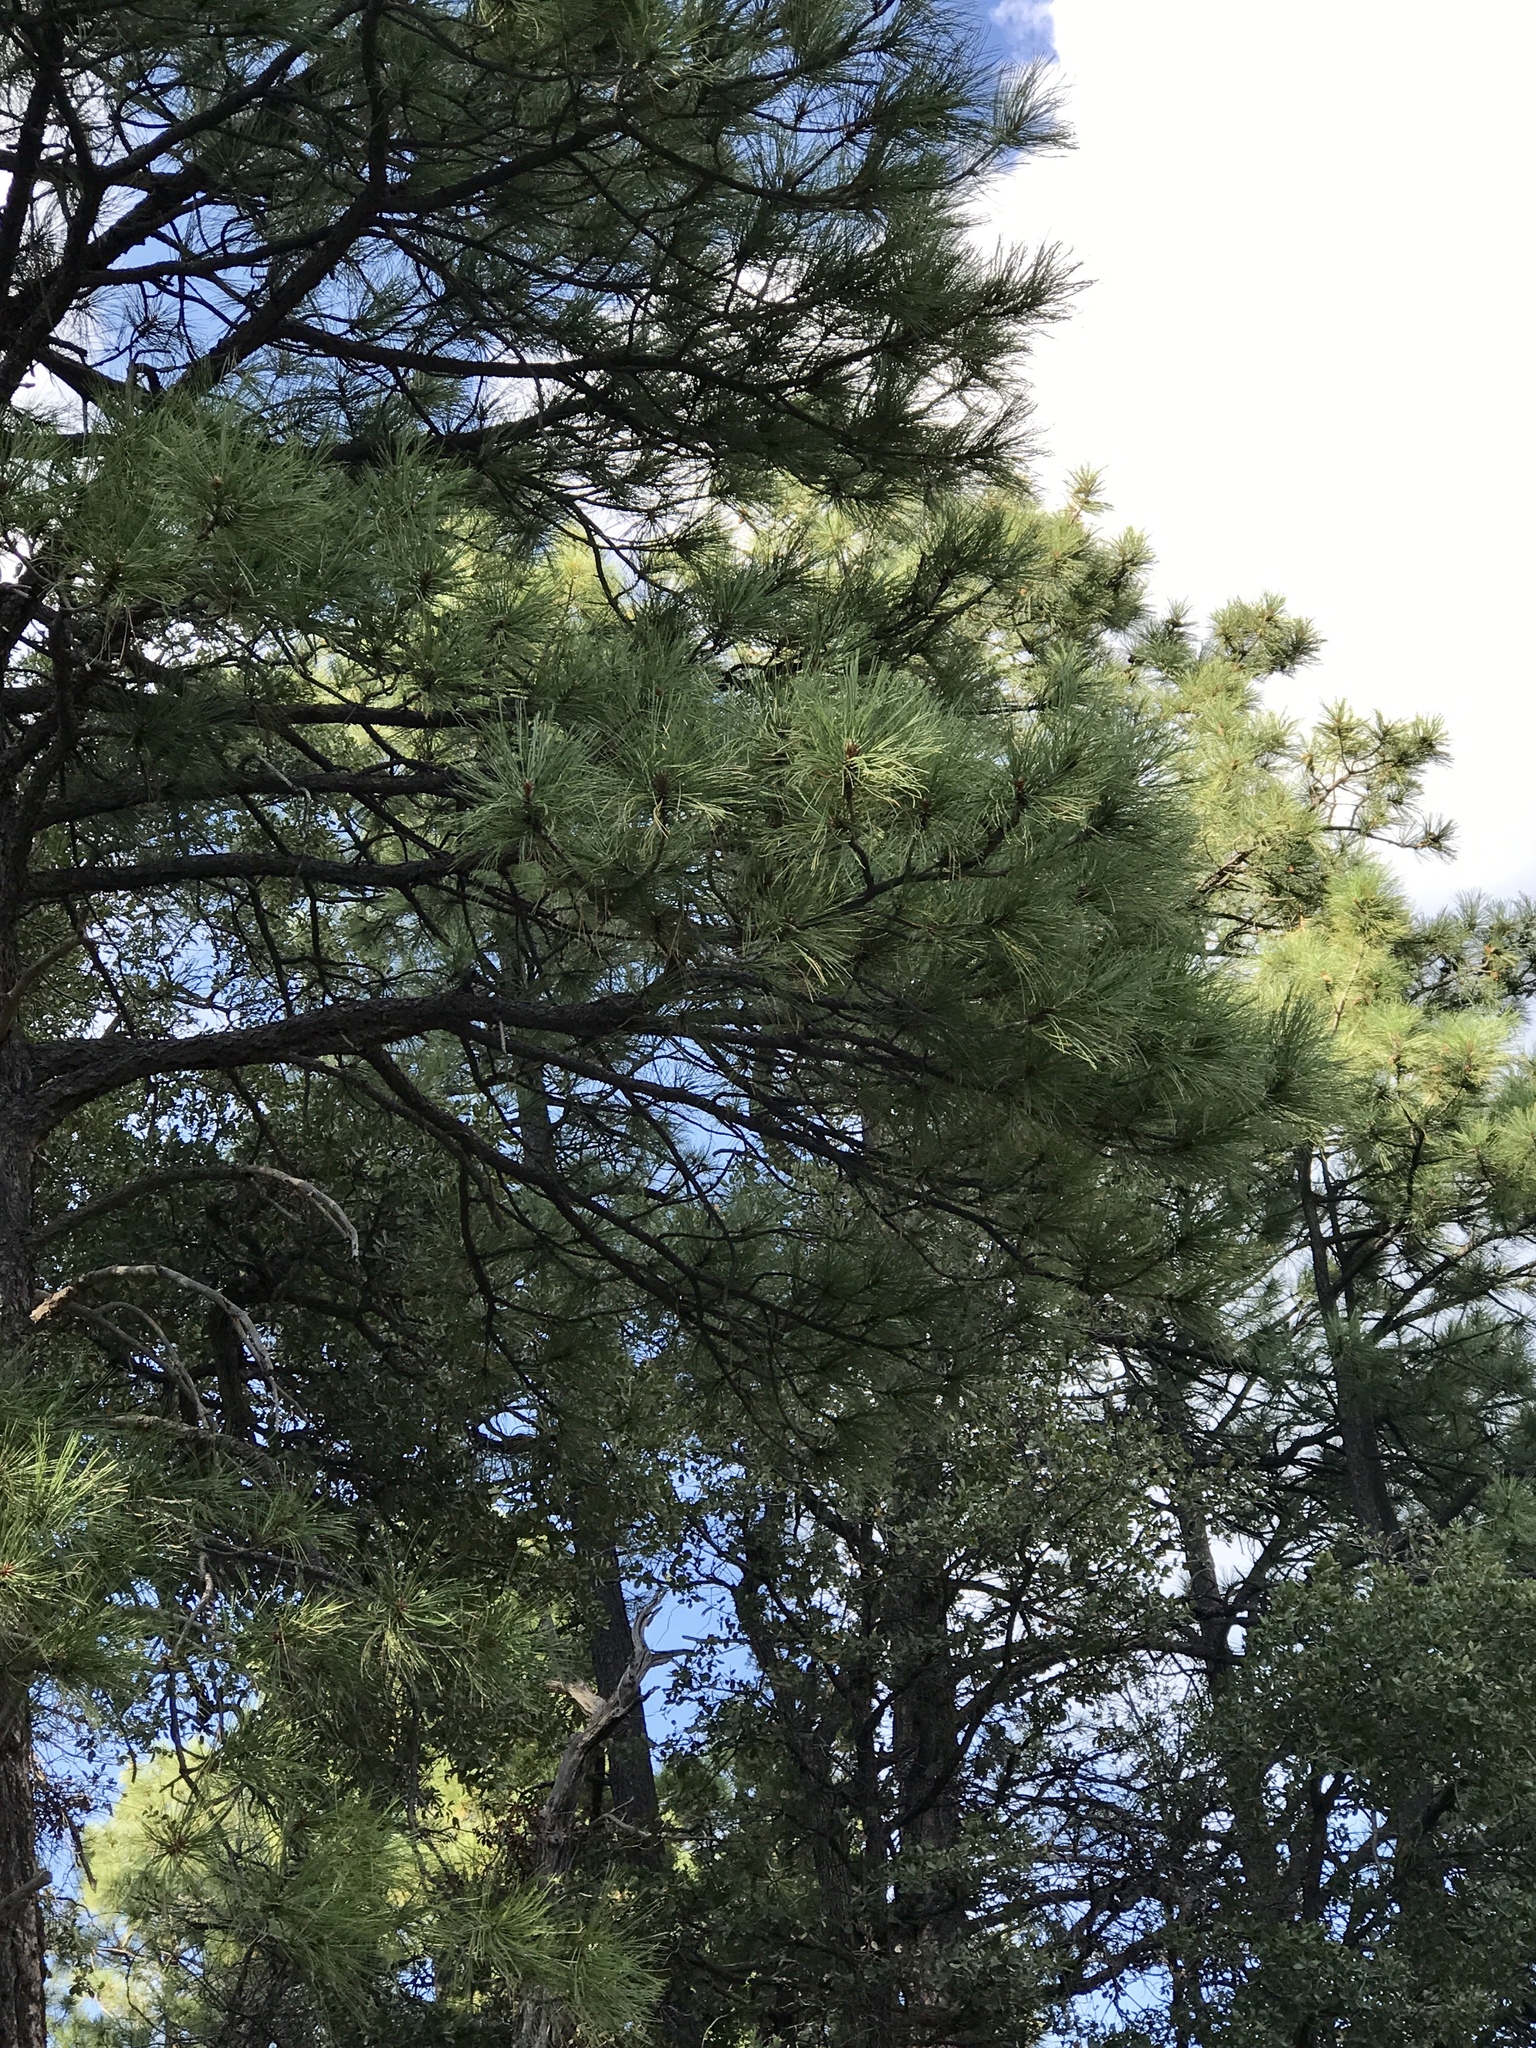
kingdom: Plantae
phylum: Tracheophyta
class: Pinopsida
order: Pinales
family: Pinaceae
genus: Pinus
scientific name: Pinus ponderosa
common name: Western yellow-pine
